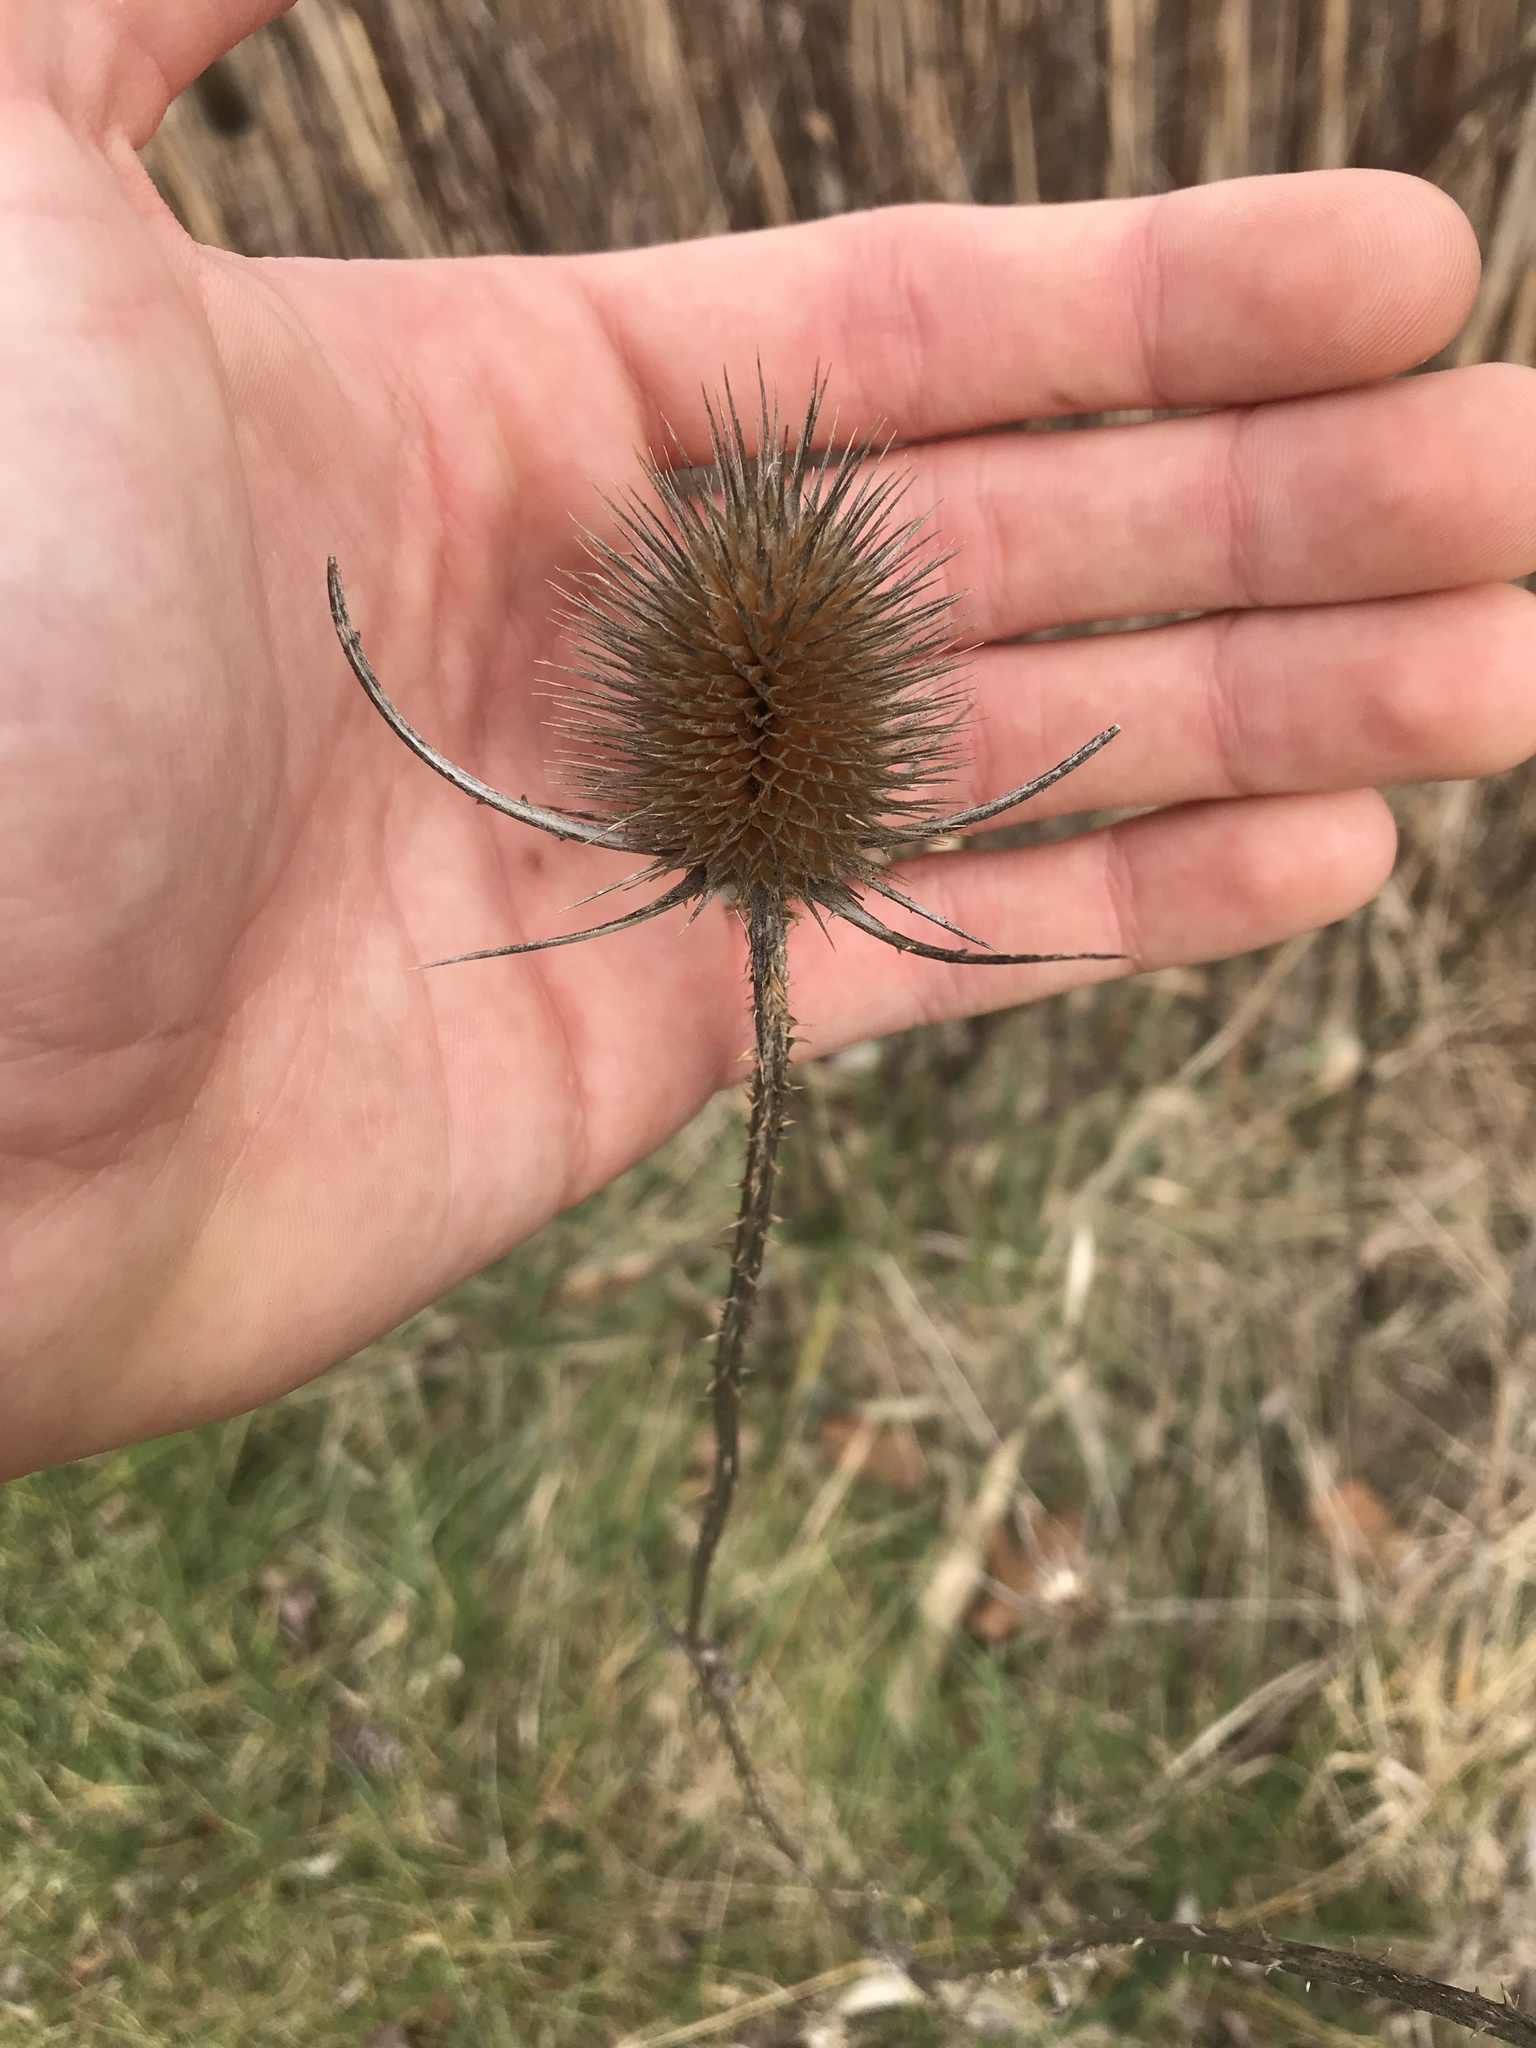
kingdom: Plantae
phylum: Tracheophyta
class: Magnoliopsida
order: Dipsacales
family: Caprifoliaceae
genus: Dipsacus
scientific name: Dipsacus fullonum
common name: Teasel
